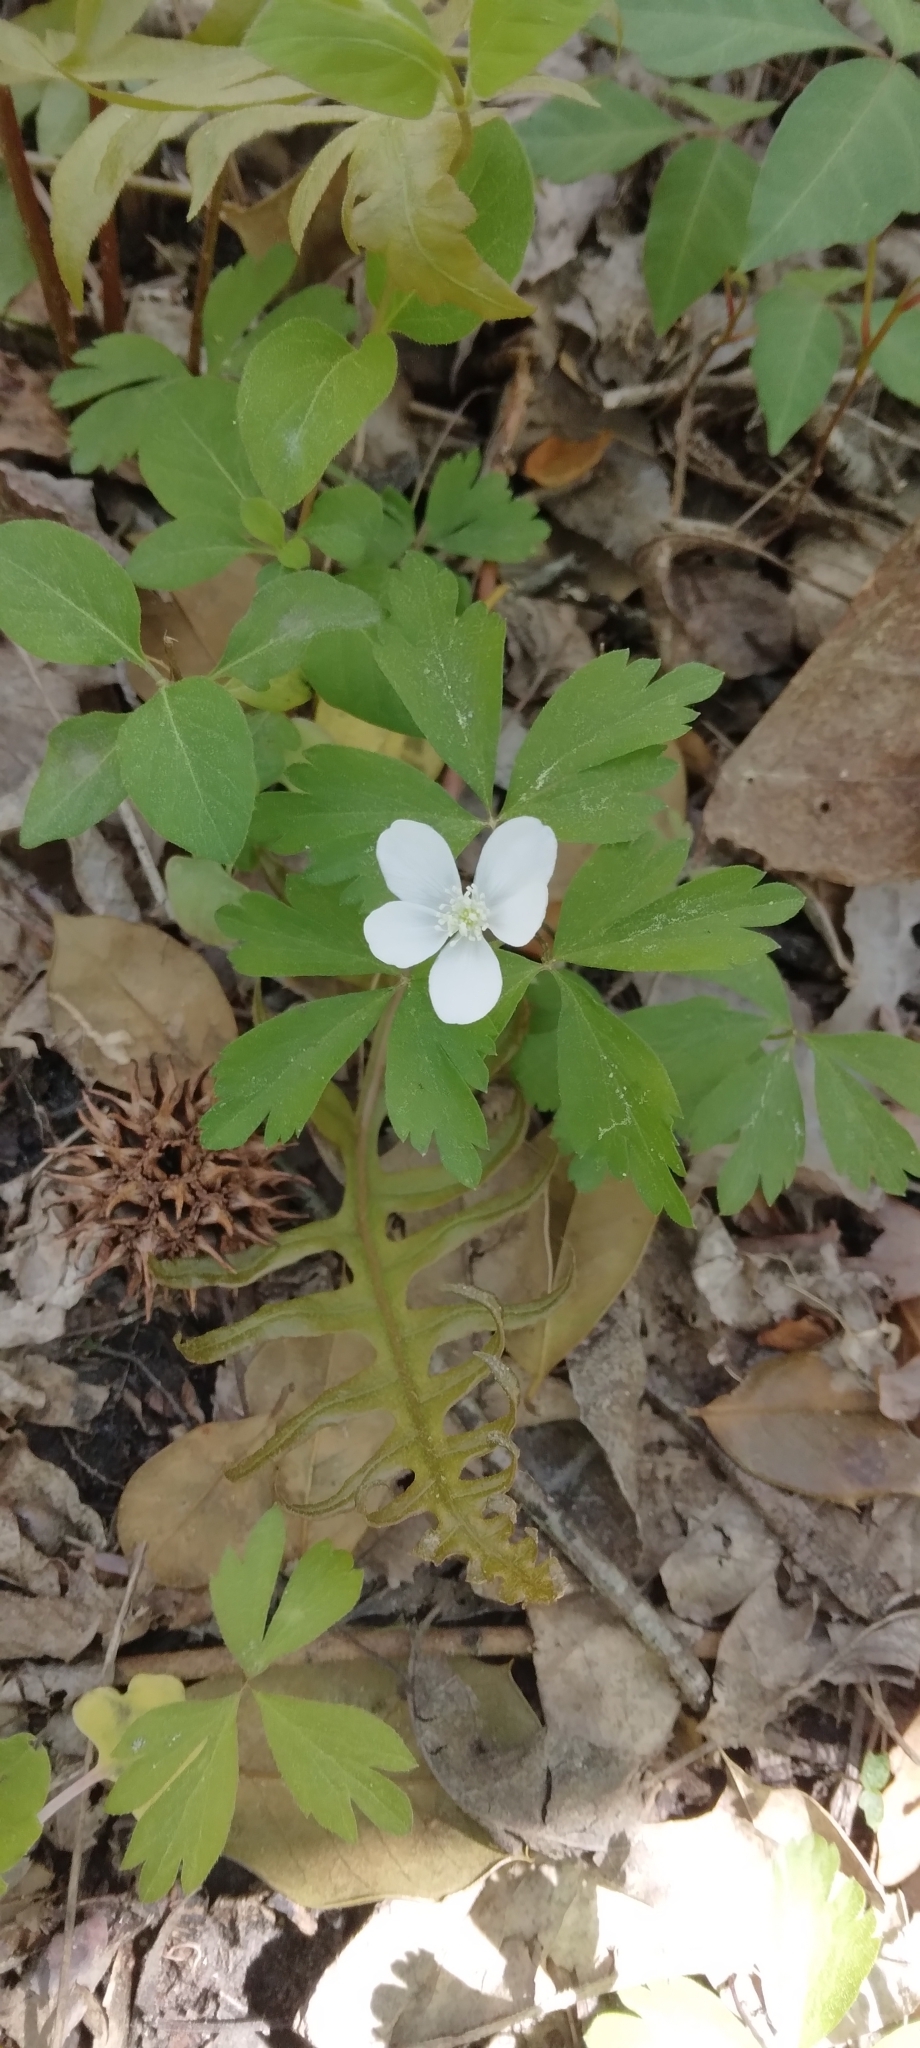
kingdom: Plantae
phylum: Tracheophyta
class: Magnoliopsida
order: Ranunculales
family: Ranunculaceae
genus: Anemone
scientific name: Anemone quinquefolia
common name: Wood anemone
